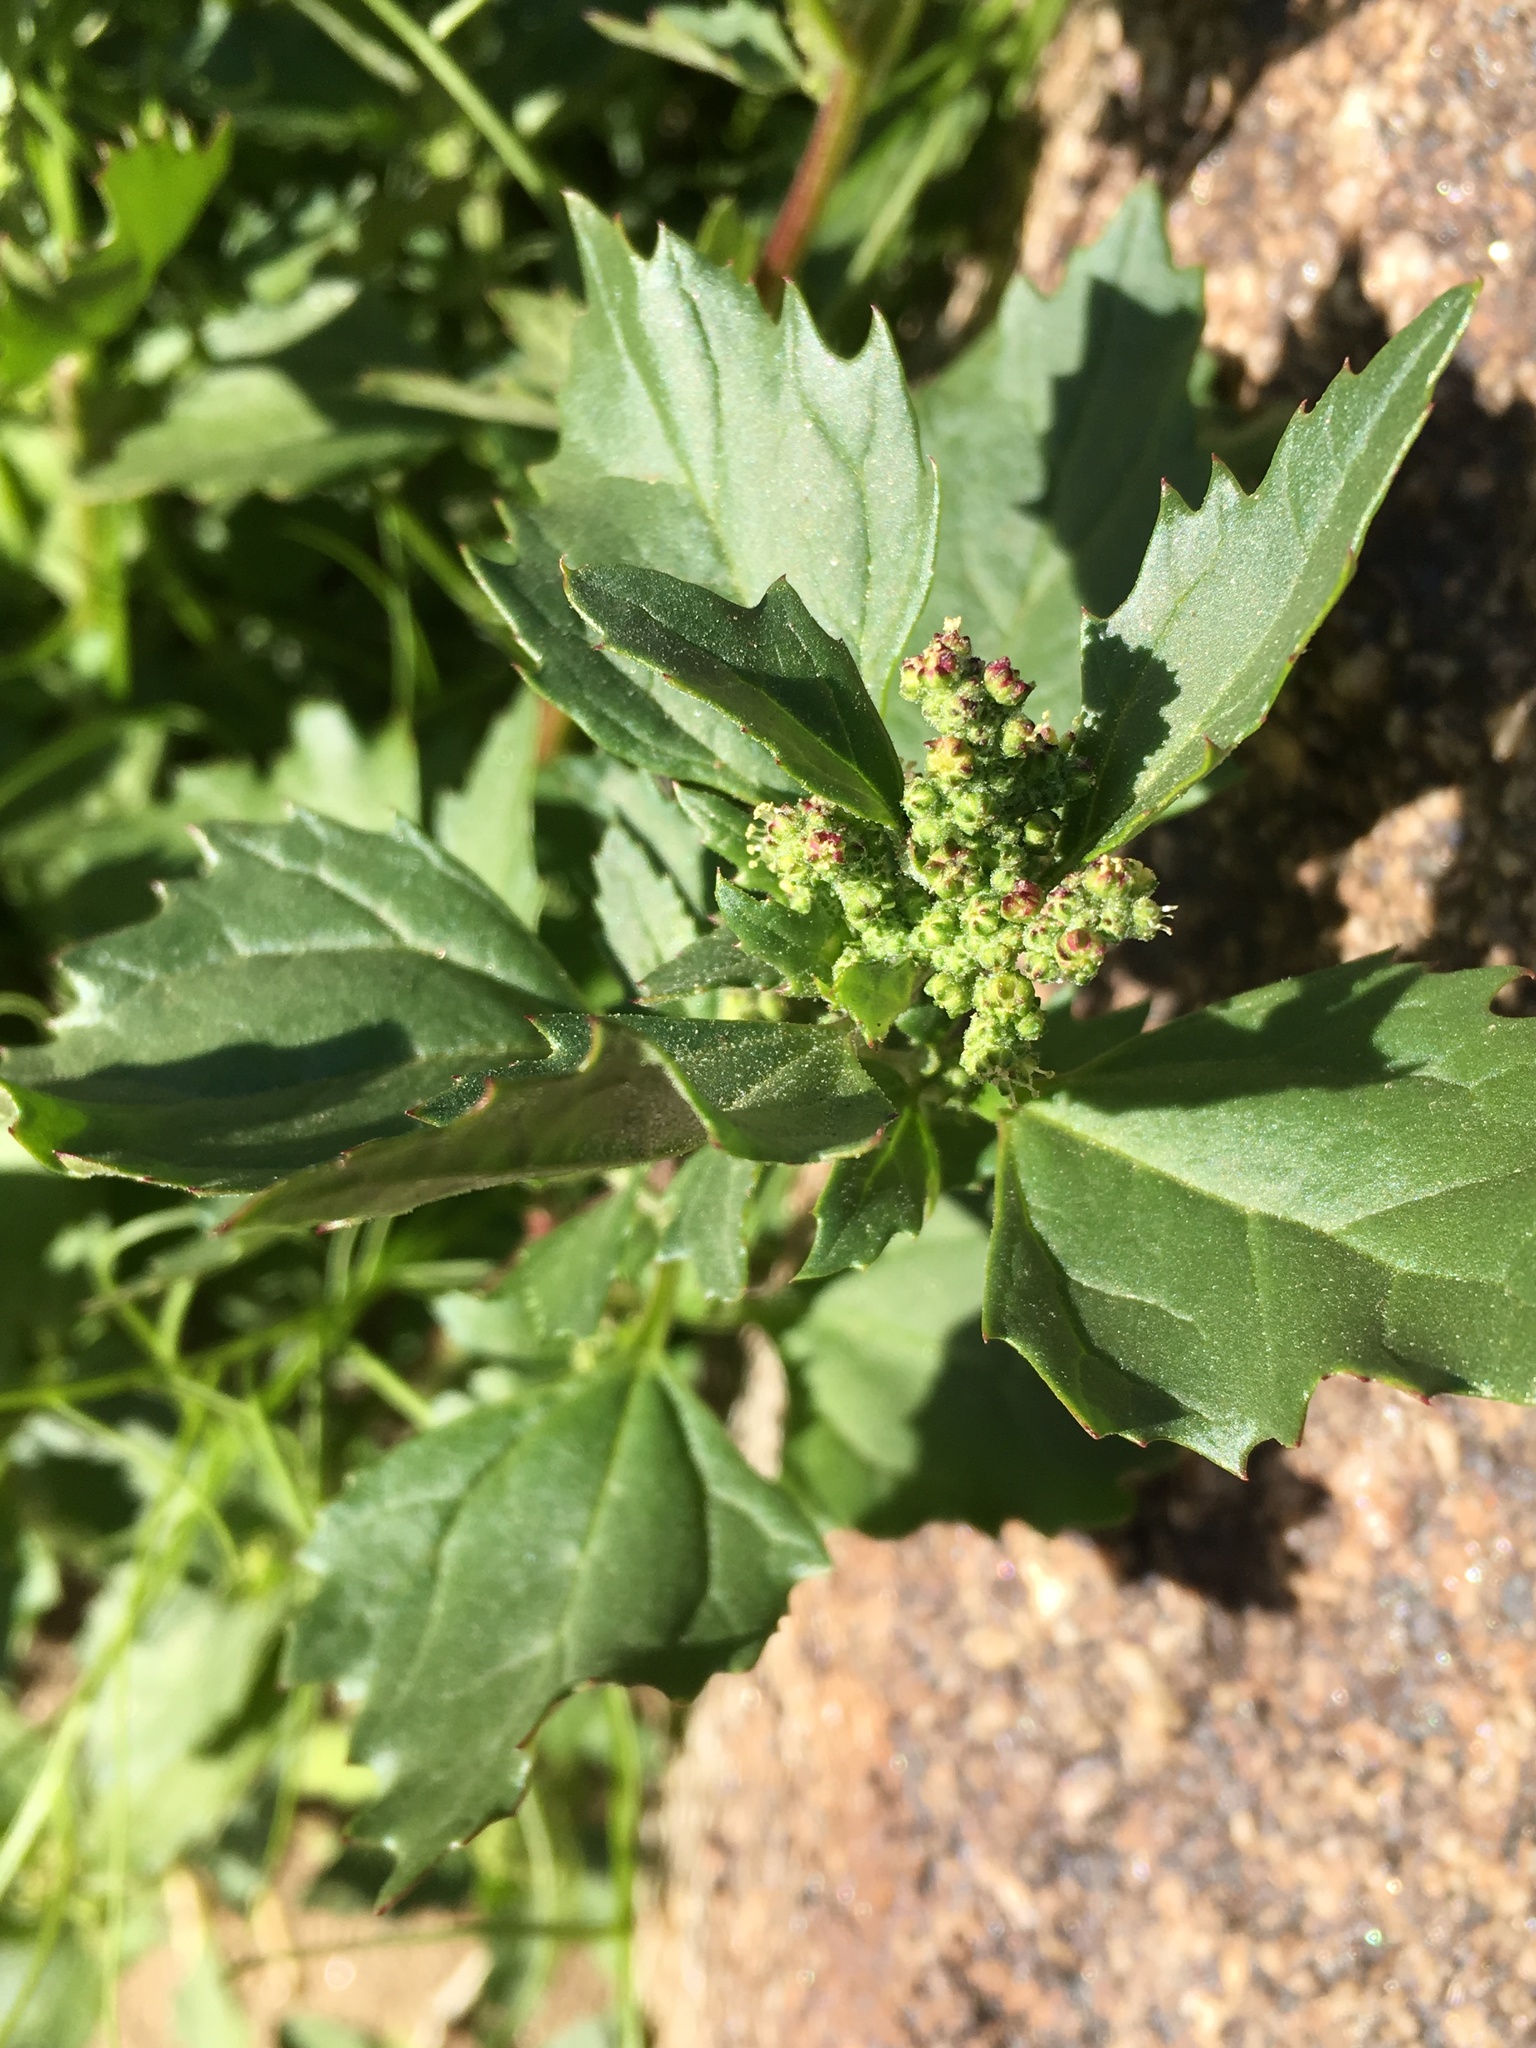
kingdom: Plantae
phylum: Tracheophyta
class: Magnoliopsida
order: Caryophyllales
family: Amaranthaceae
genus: Chenopodiastrum
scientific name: Chenopodiastrum murale
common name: Sowbane
